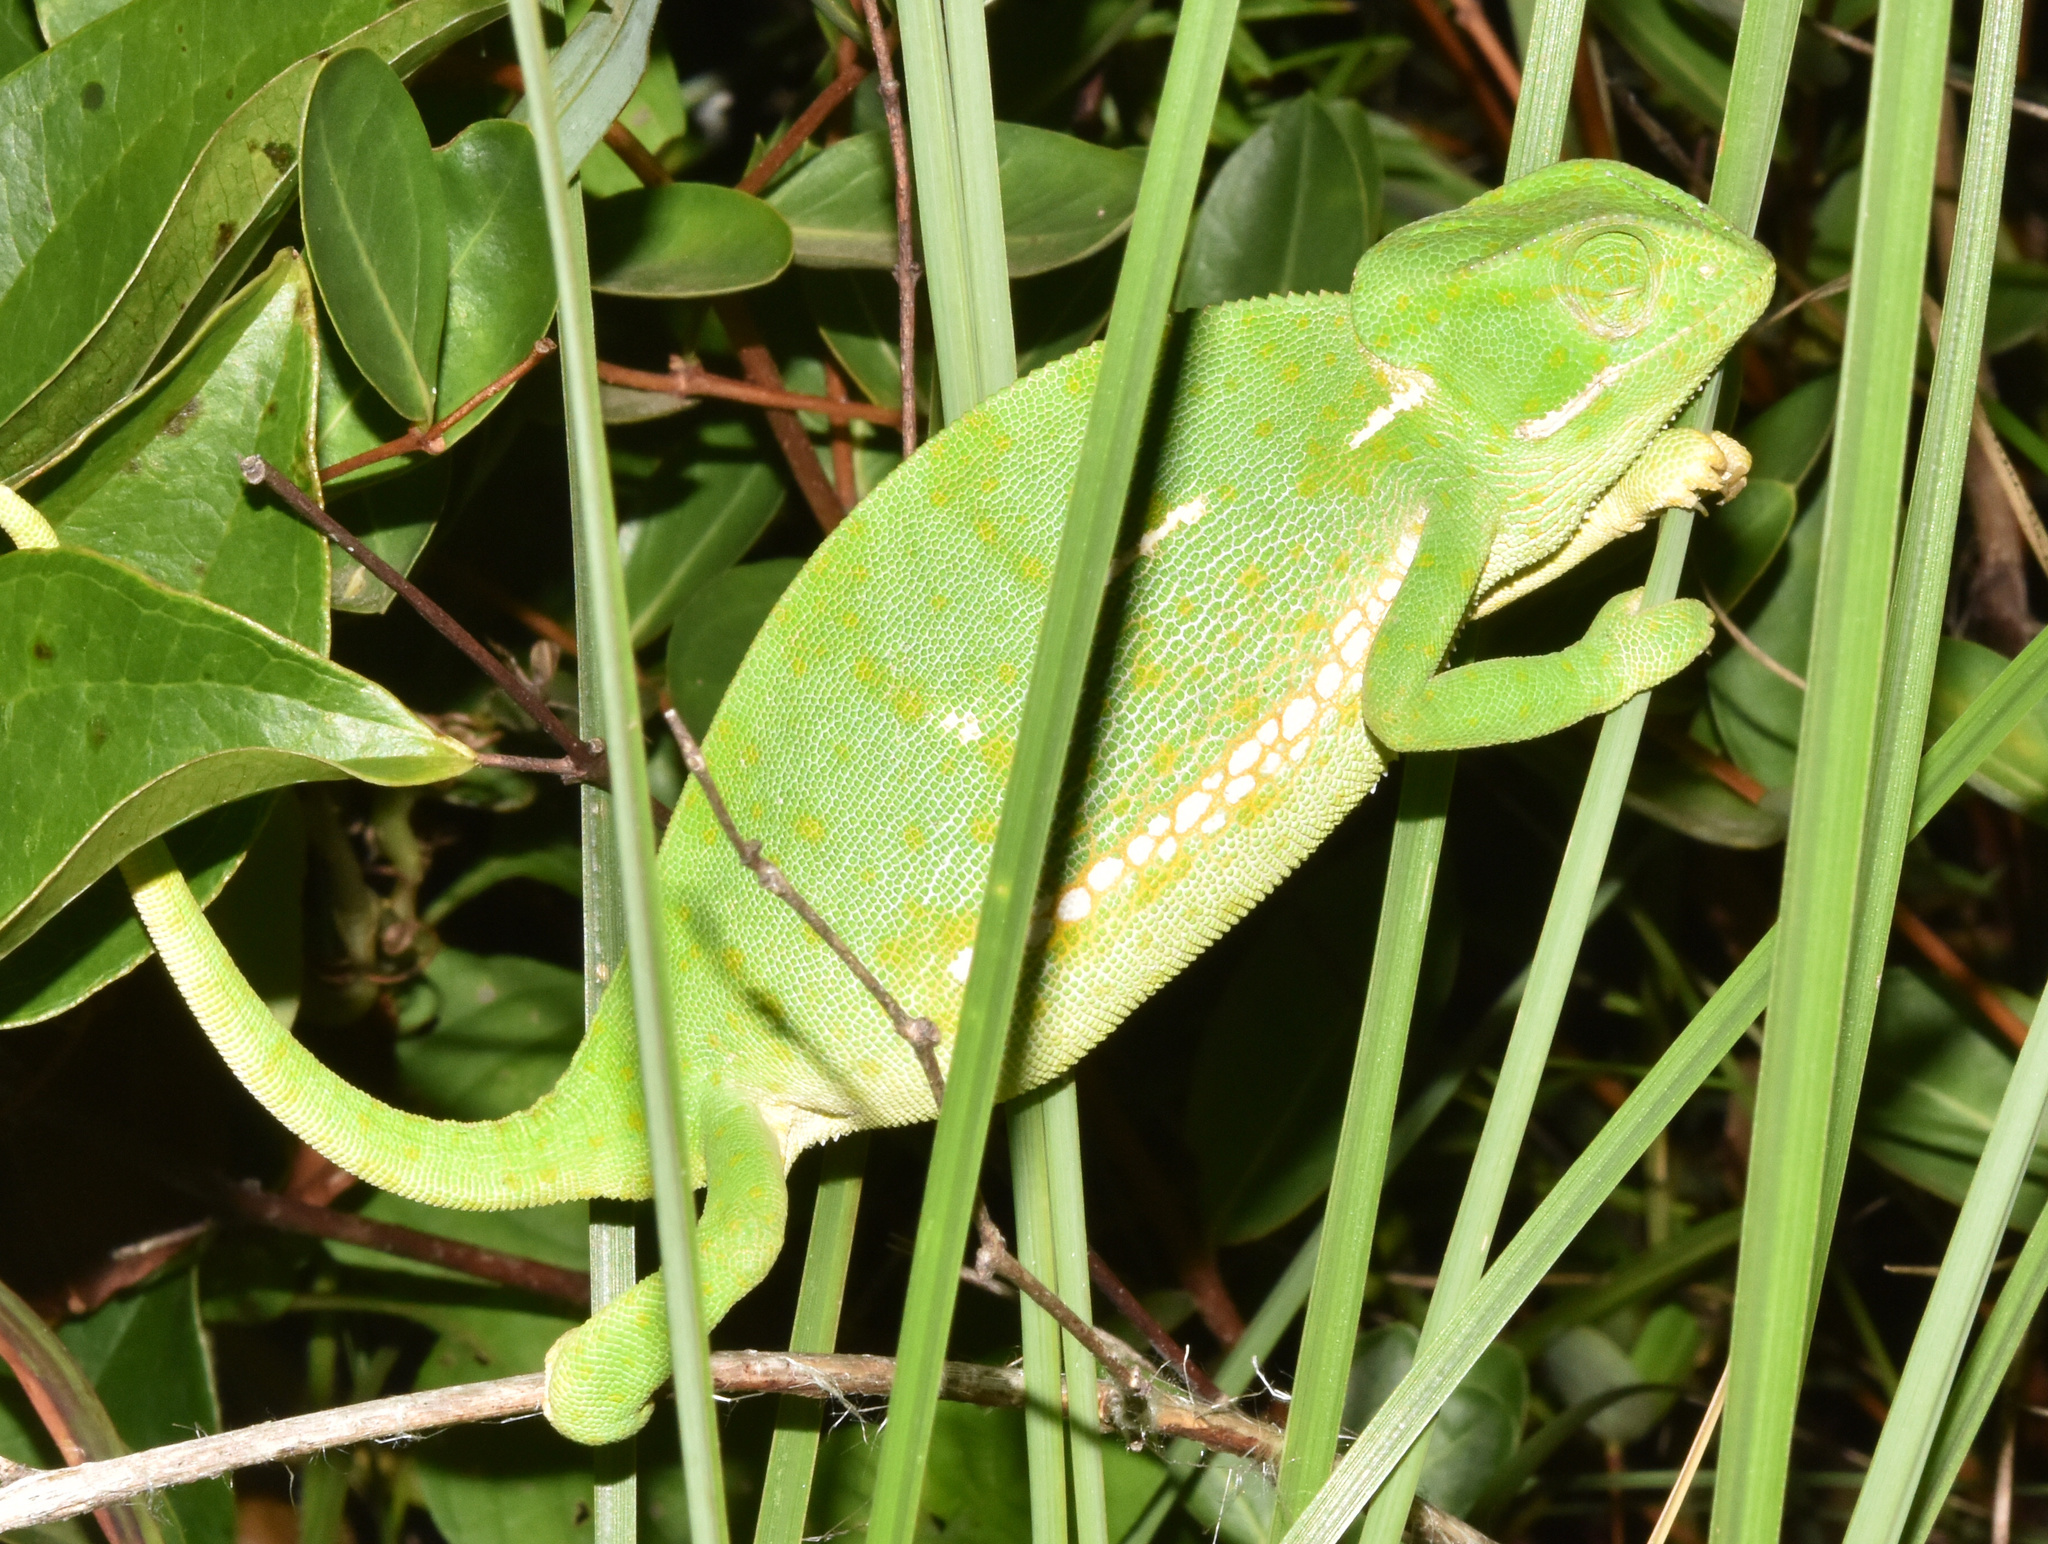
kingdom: Animalia
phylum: Chordata
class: Squamata
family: Chamaeleonidae
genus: Chamaeleo
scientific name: Chamaeleo dilepis
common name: Flapneck chameleon
